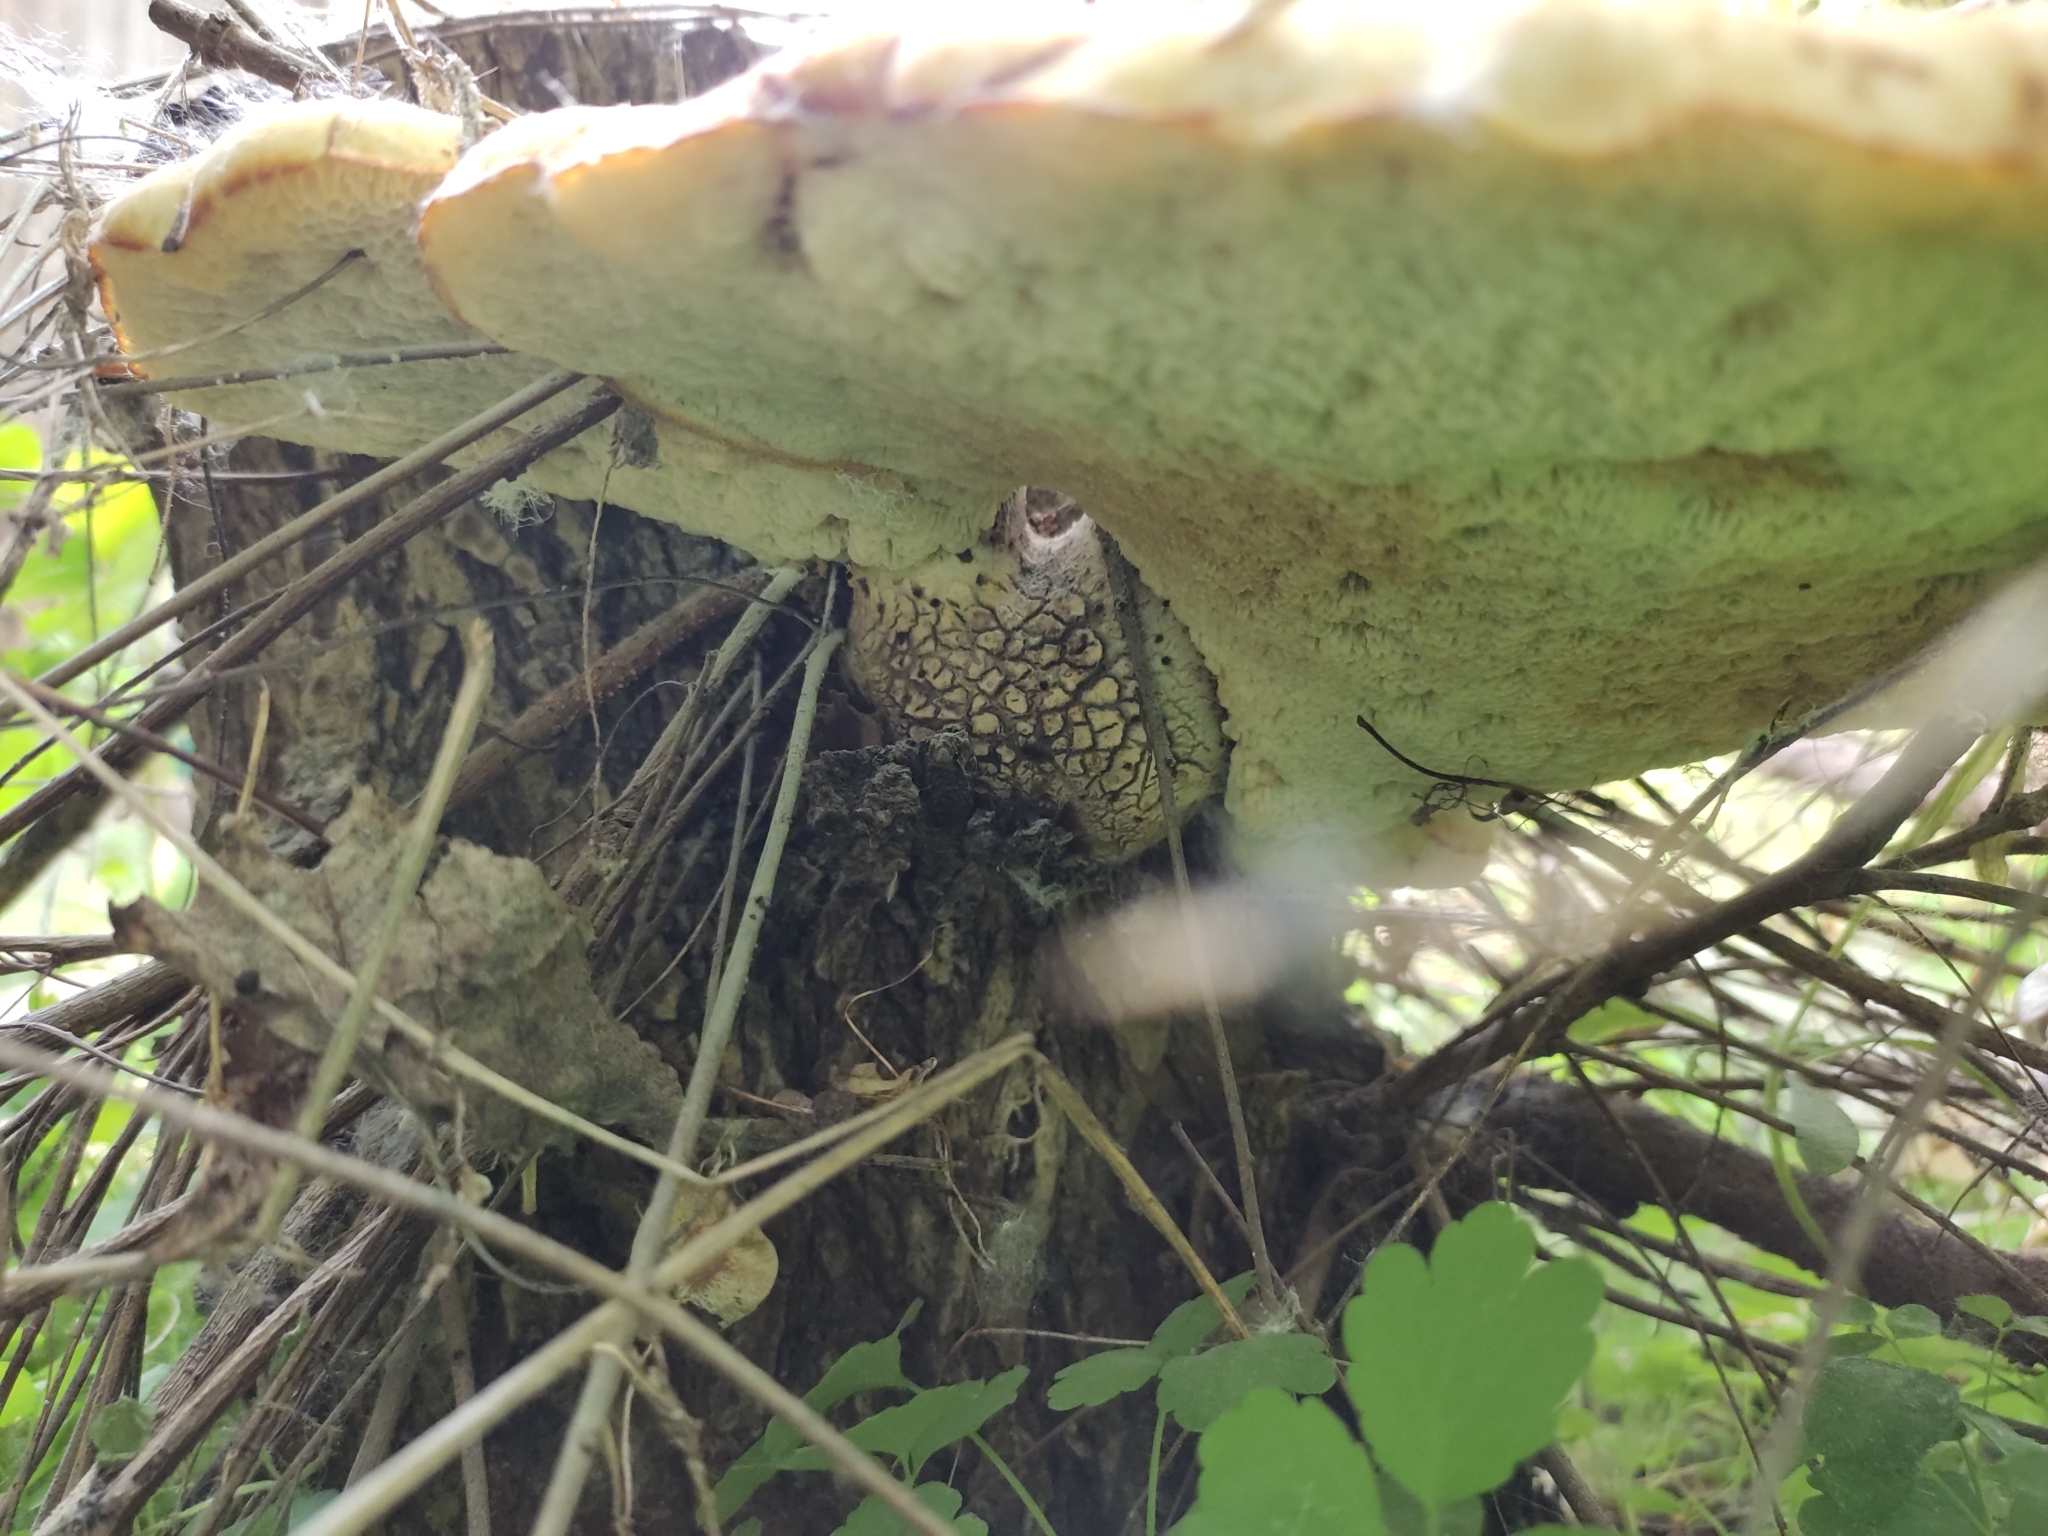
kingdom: Fungi
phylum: Basidiomycota
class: Agaricomycetes
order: Polyporales
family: Polyporaceae
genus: Cerioporus
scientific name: Cerioporus squamosus
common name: Dryad's saddle
